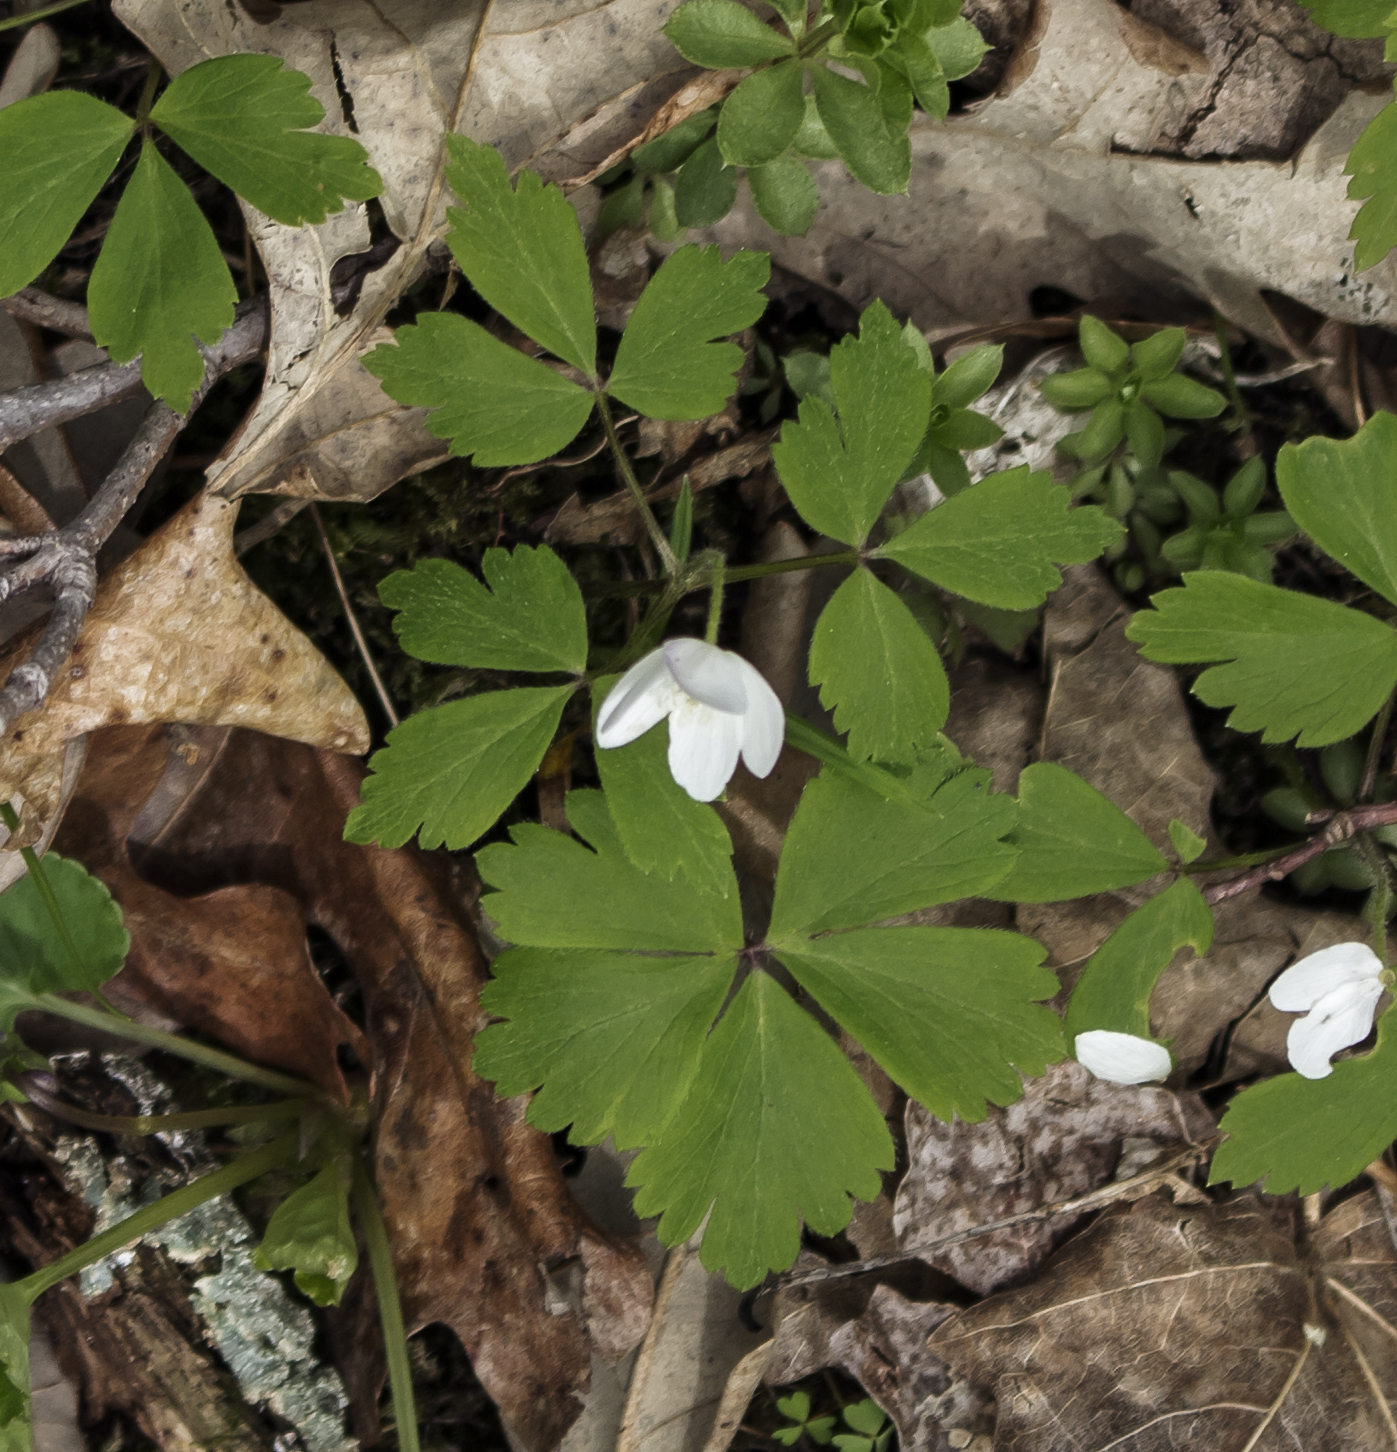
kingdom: Plantae
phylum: Tracheophyta
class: Magnoliopsida
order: Ranunculales
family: Ranunculaceae
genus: Anemone
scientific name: Anemone quinquefolia
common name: Wood anemone
